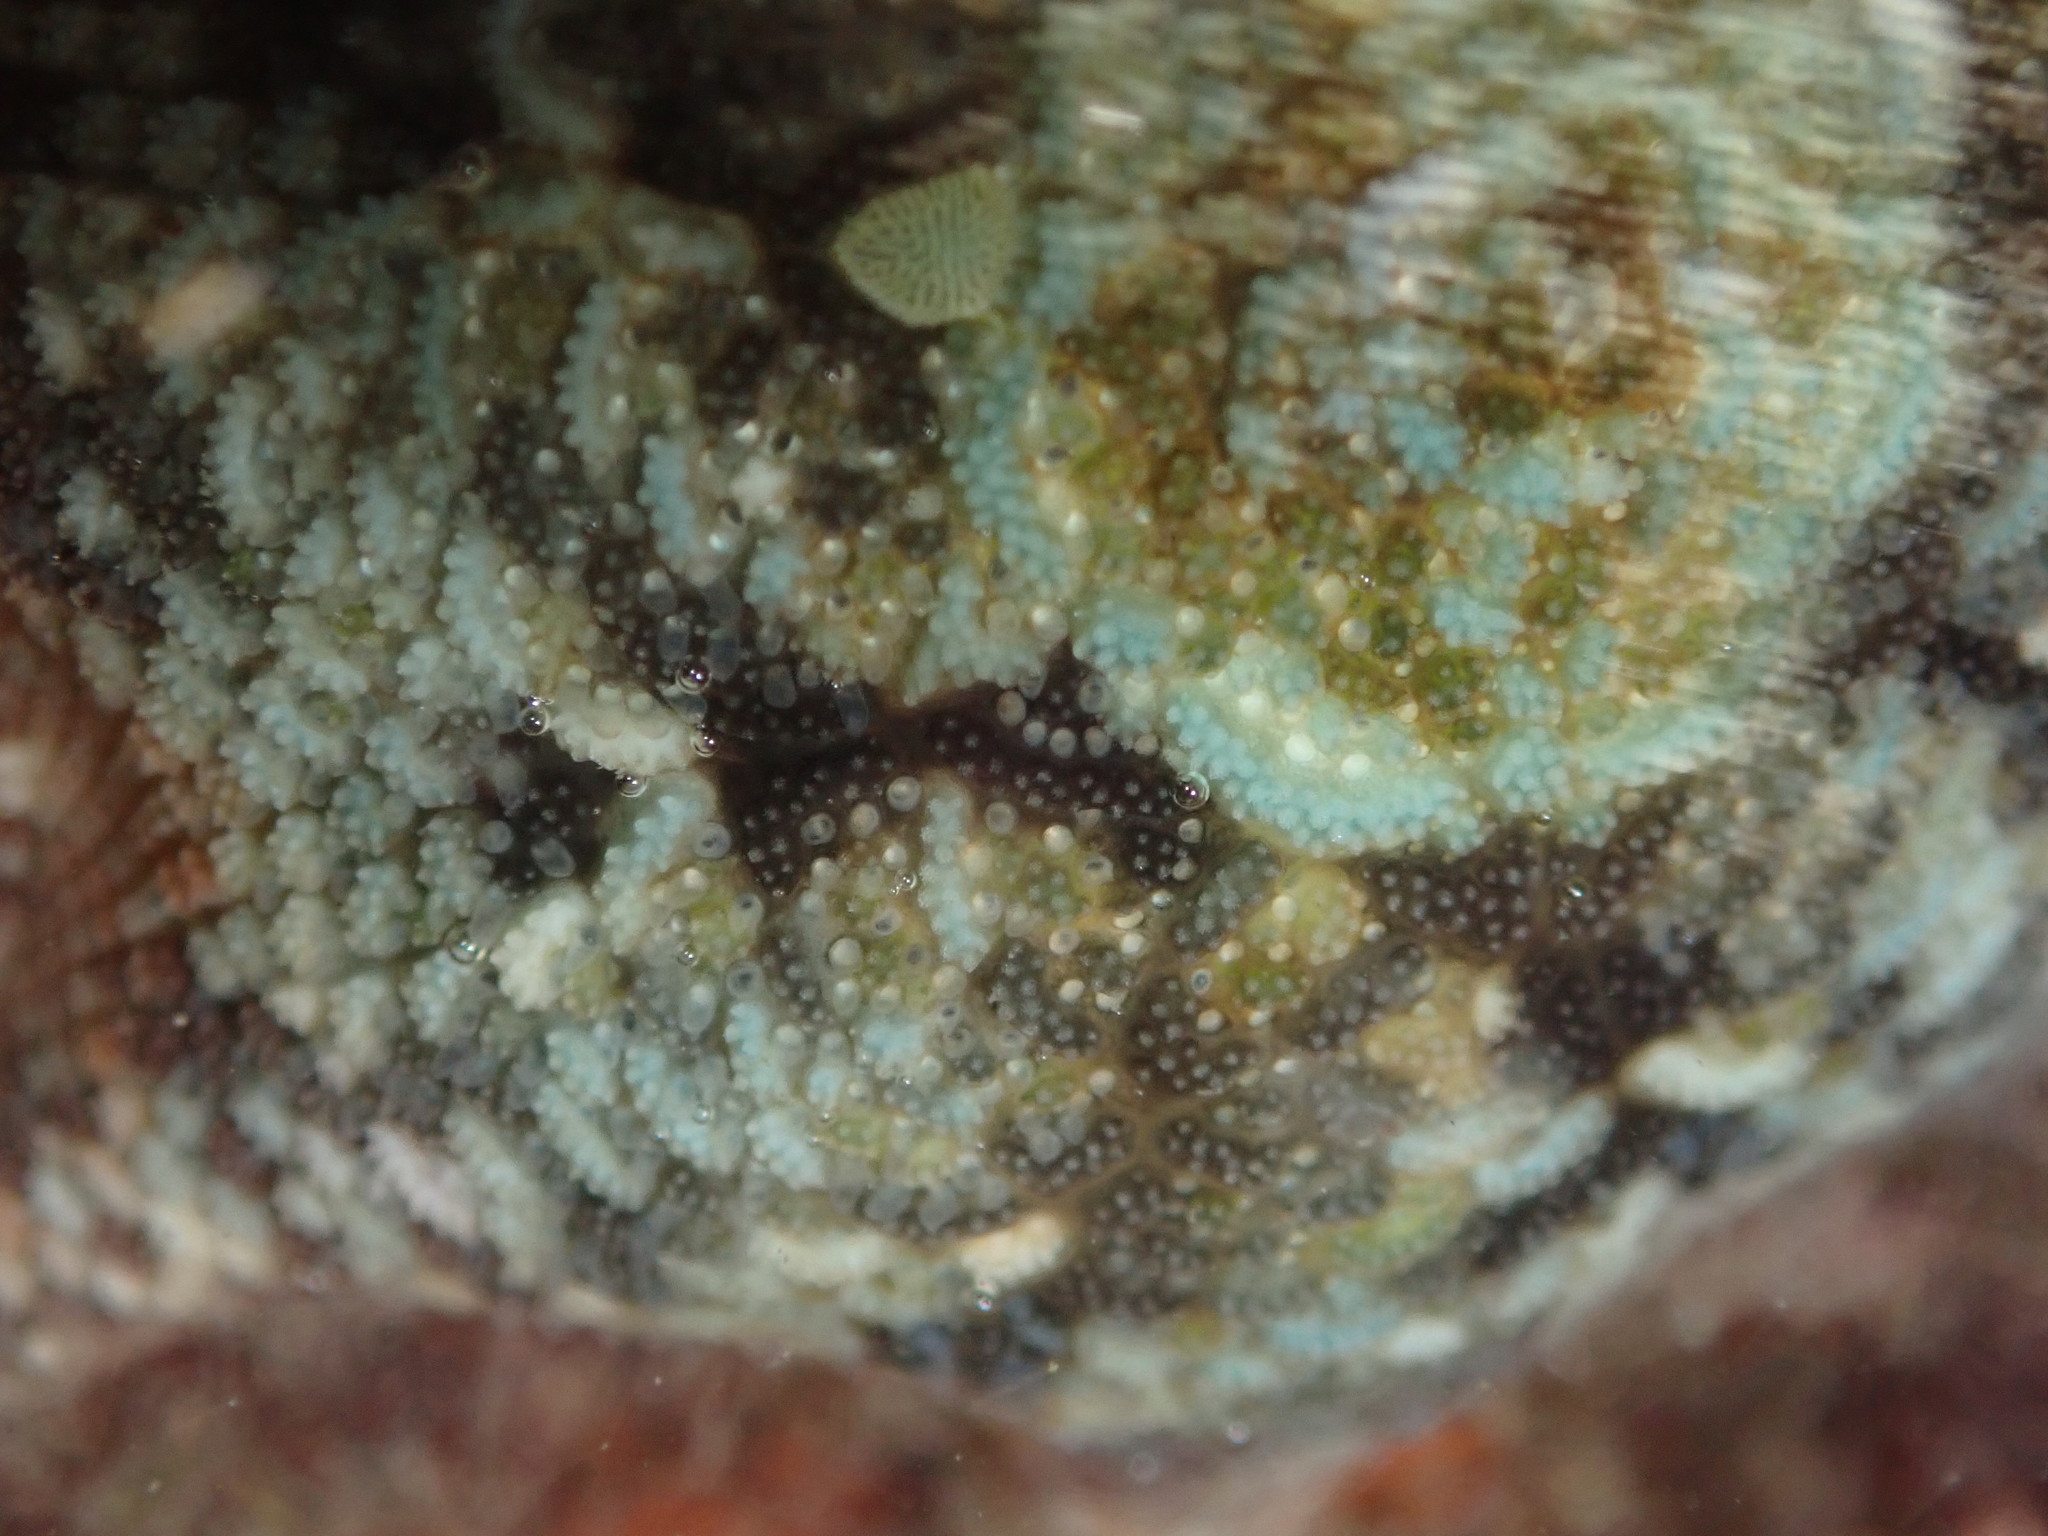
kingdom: Animalia
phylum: Echinodermata
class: Asteroidea
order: Valvatida
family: Asterinidae
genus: Meridiastra
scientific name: Meridiastra calcar
